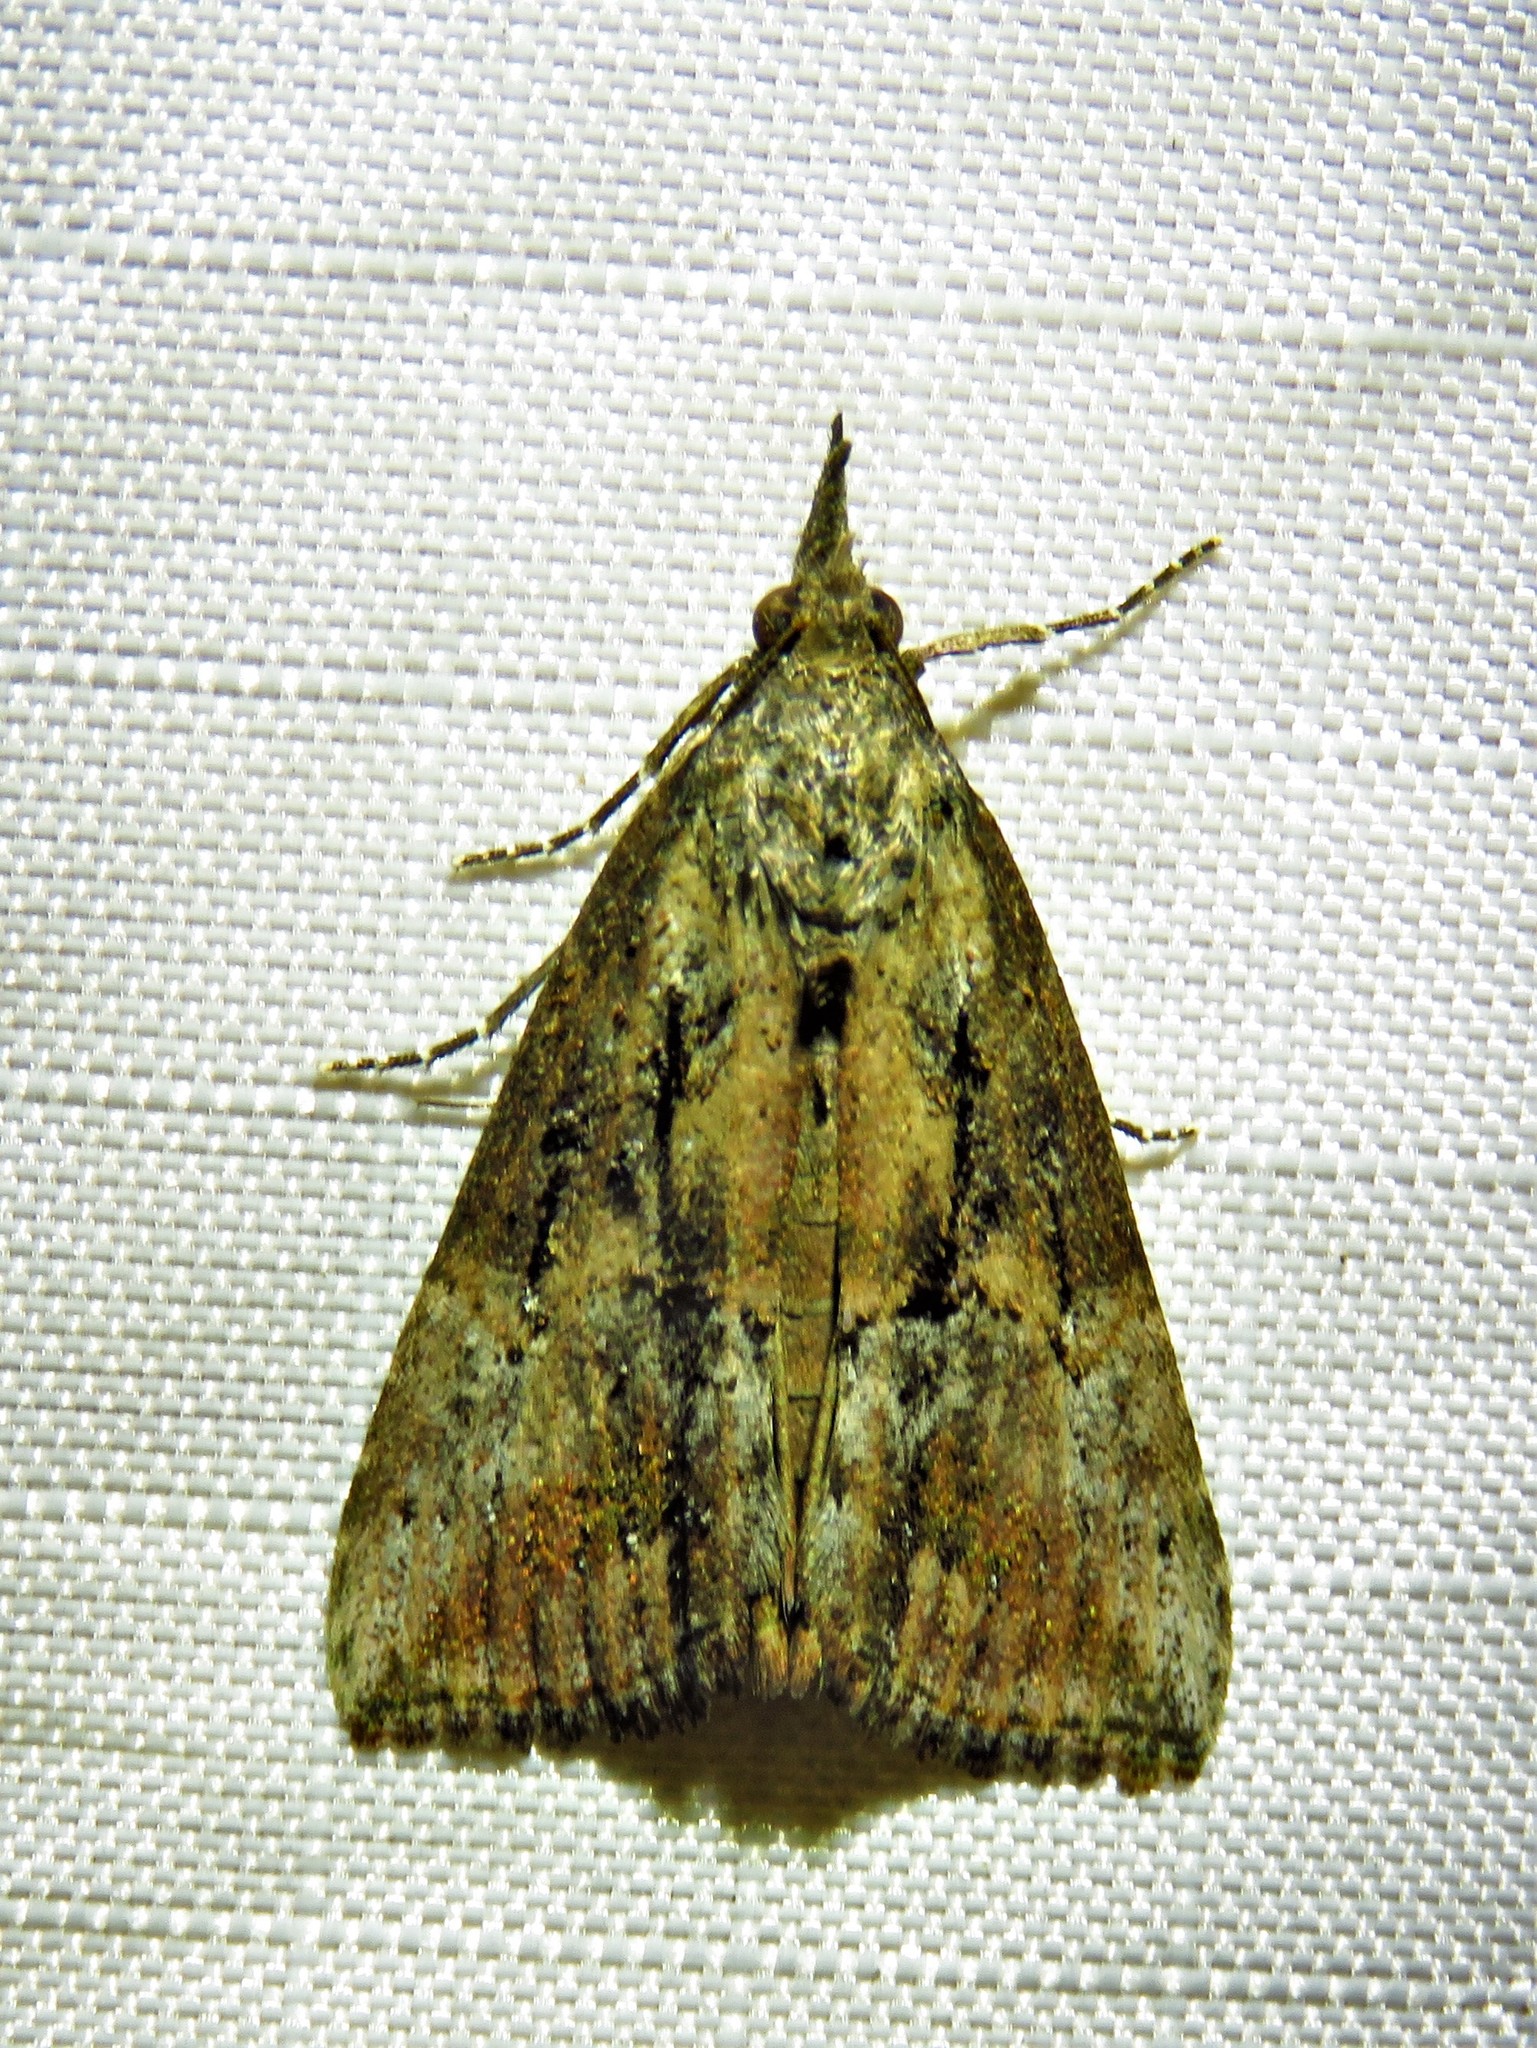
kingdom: Animalia
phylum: Arthropoda
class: Insecta
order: Lepidoptera
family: Erebidae
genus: Hypena
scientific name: Hypena scabra
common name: Green cloverworm
